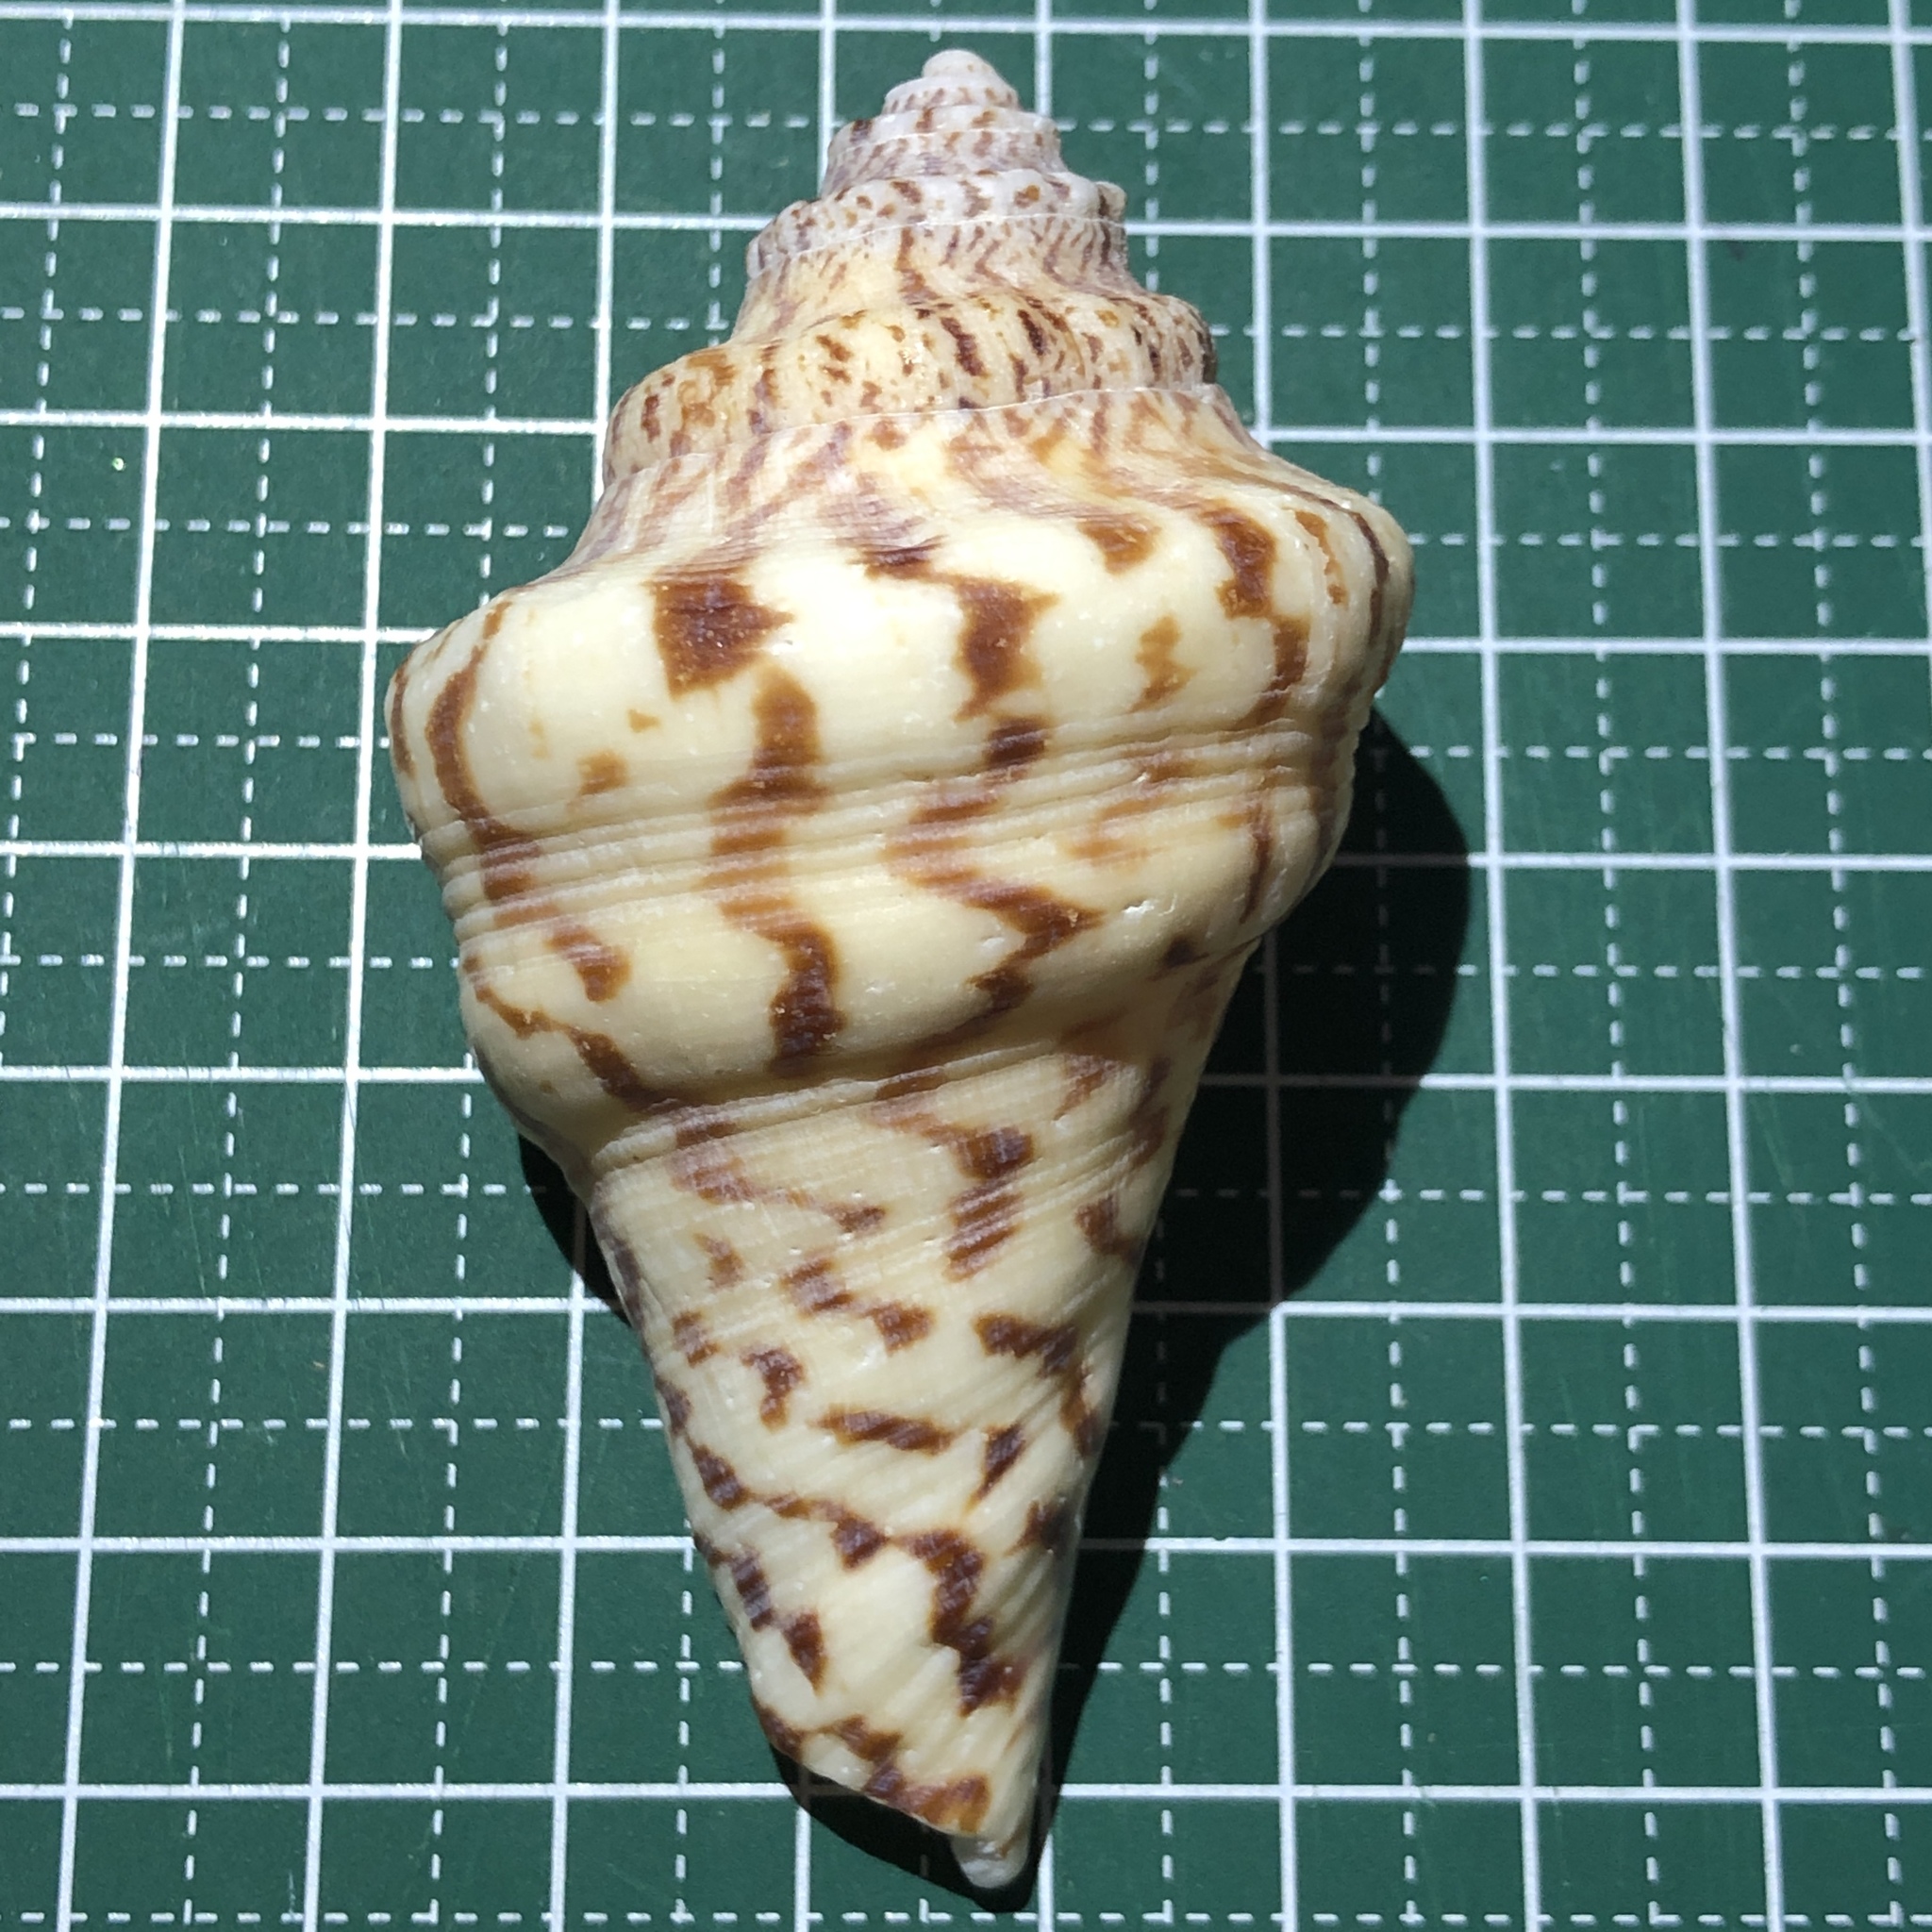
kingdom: Animalia
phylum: Mollusca
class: Gastropoda
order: Littorinimorpha
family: Strombidae
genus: Harpago
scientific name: Harpago chiragra
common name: Chiragra spider conch
